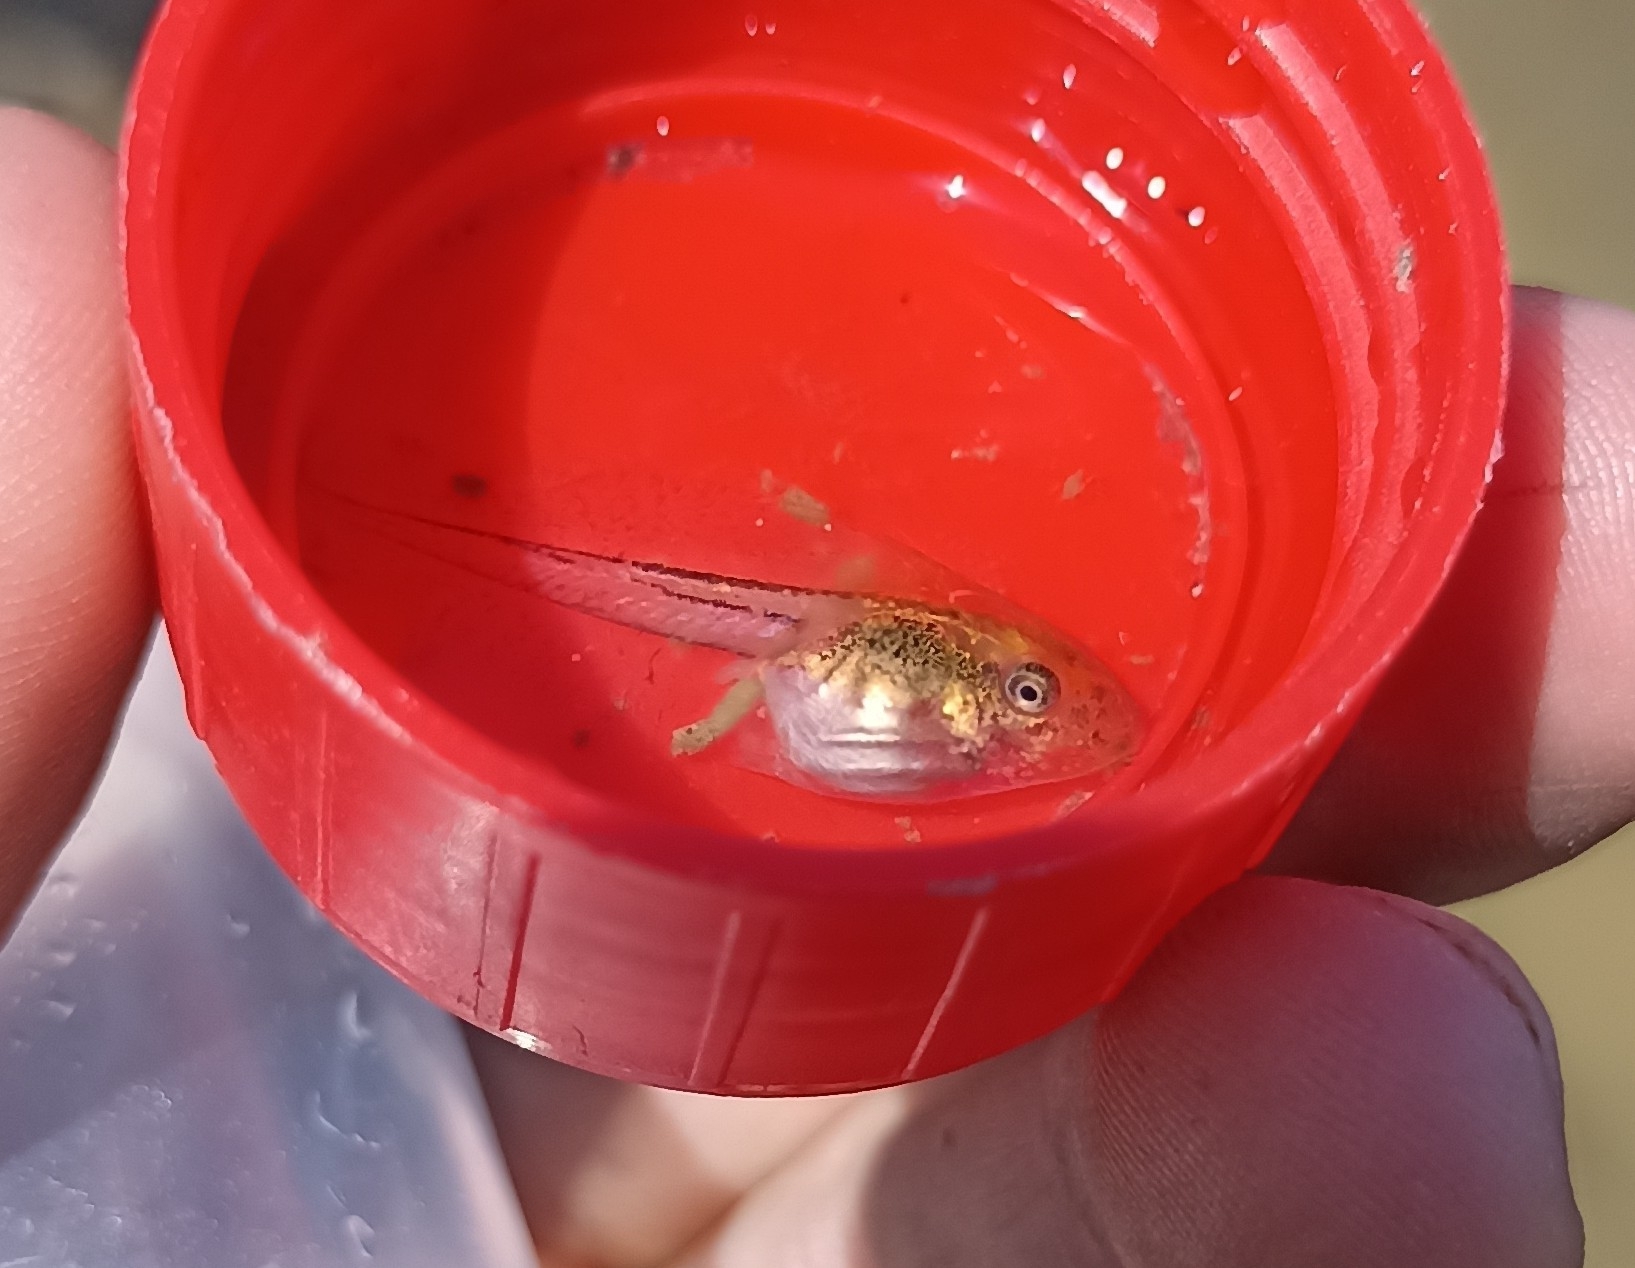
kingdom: Animalia
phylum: Chordata
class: Amphibia
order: Anura
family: Hylidae
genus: Hyla
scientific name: Hyla meridionalis
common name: Stripeless tree frog
